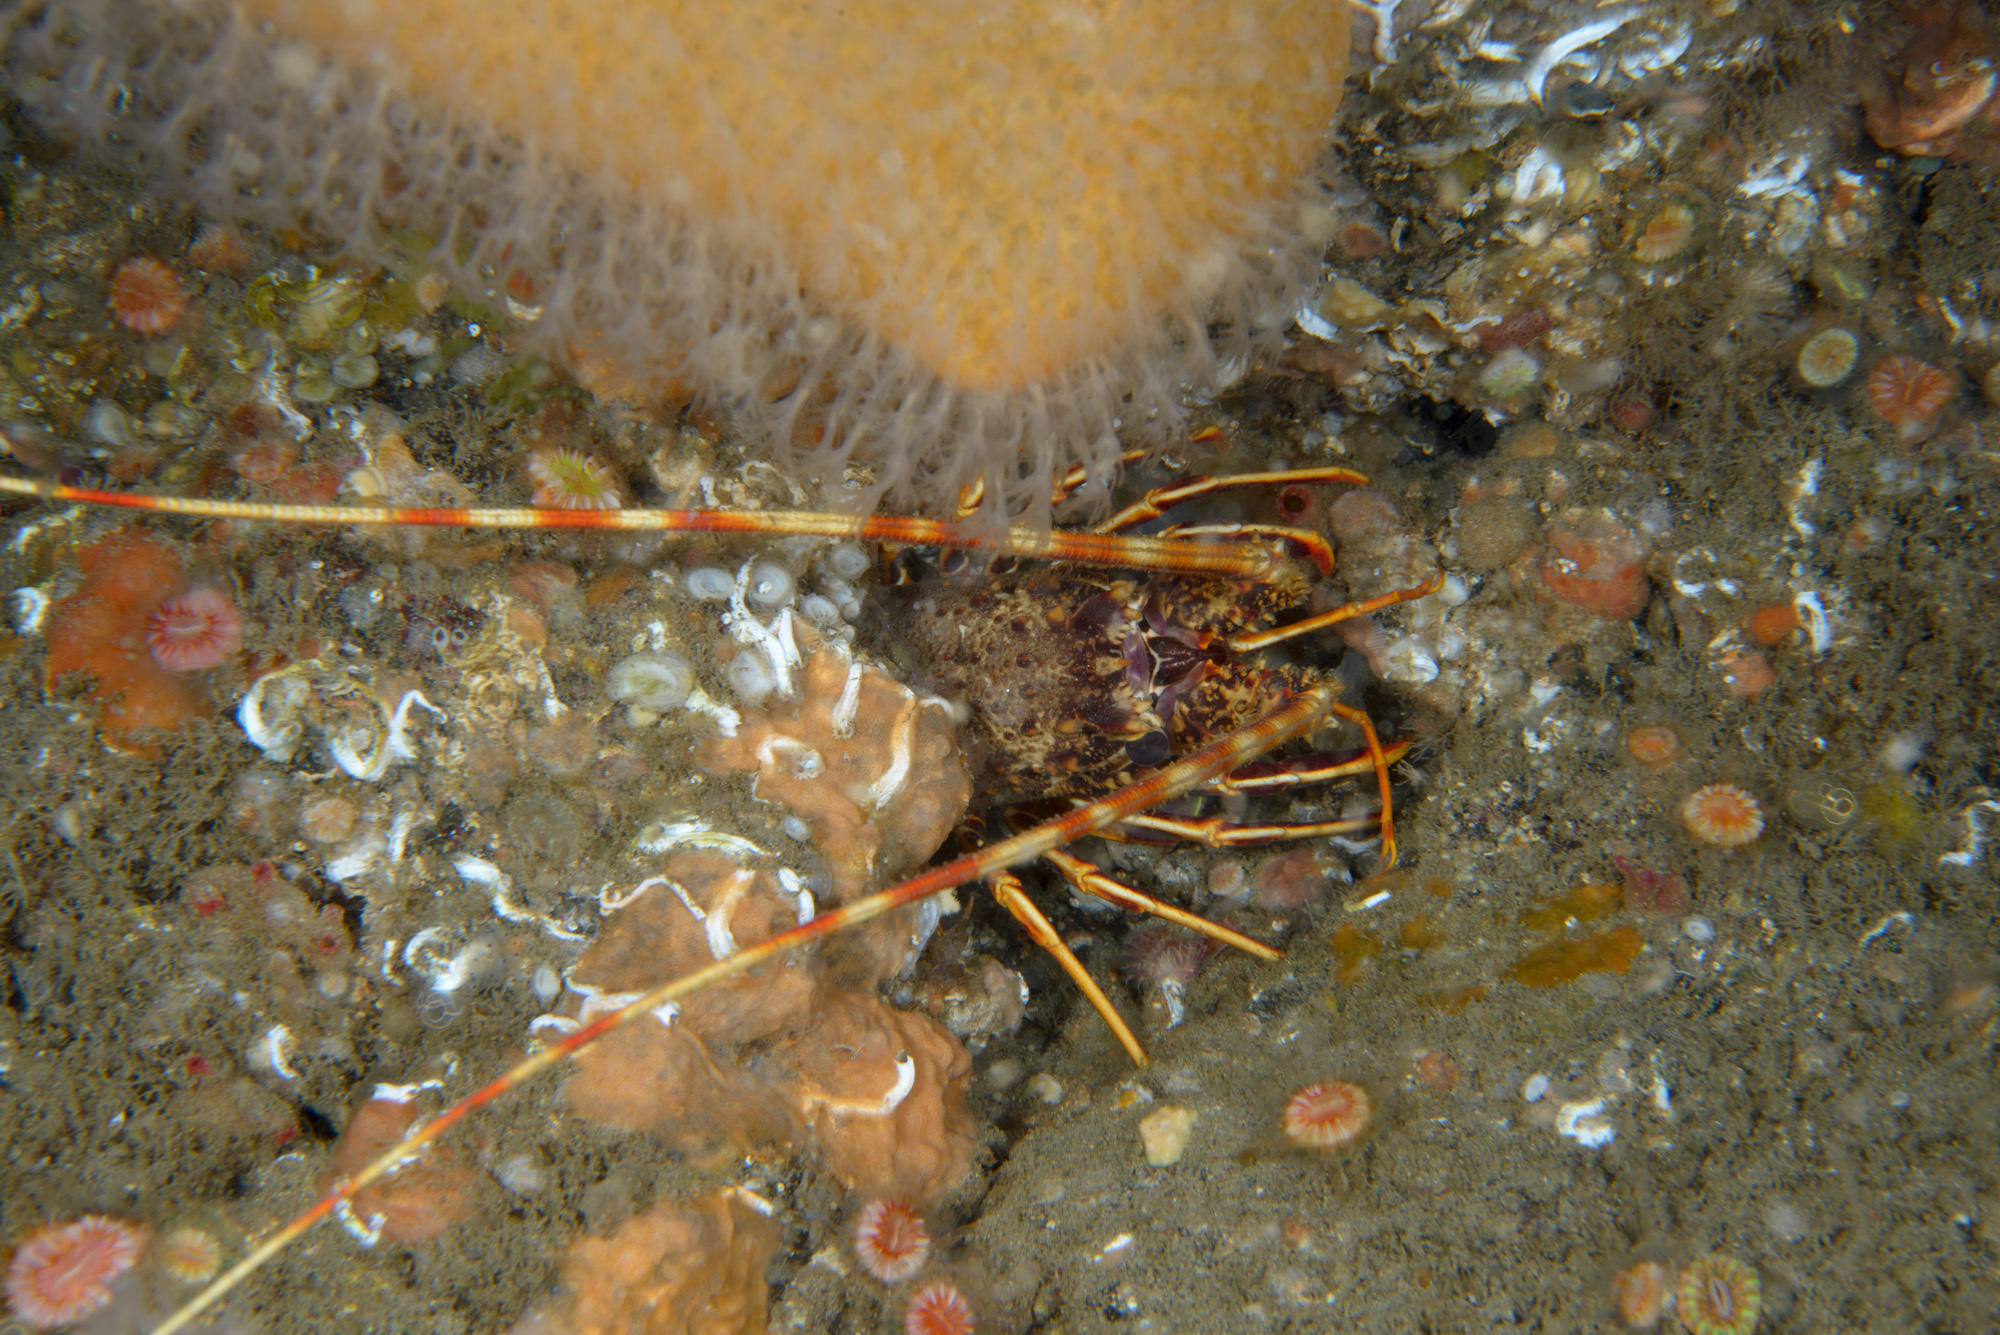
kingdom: Animalia
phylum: Arthropoda
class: Malacostraca
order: Decapoda
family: Palinuridae
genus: Palinurus
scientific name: Palinurus elephas
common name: European spiny lobster
